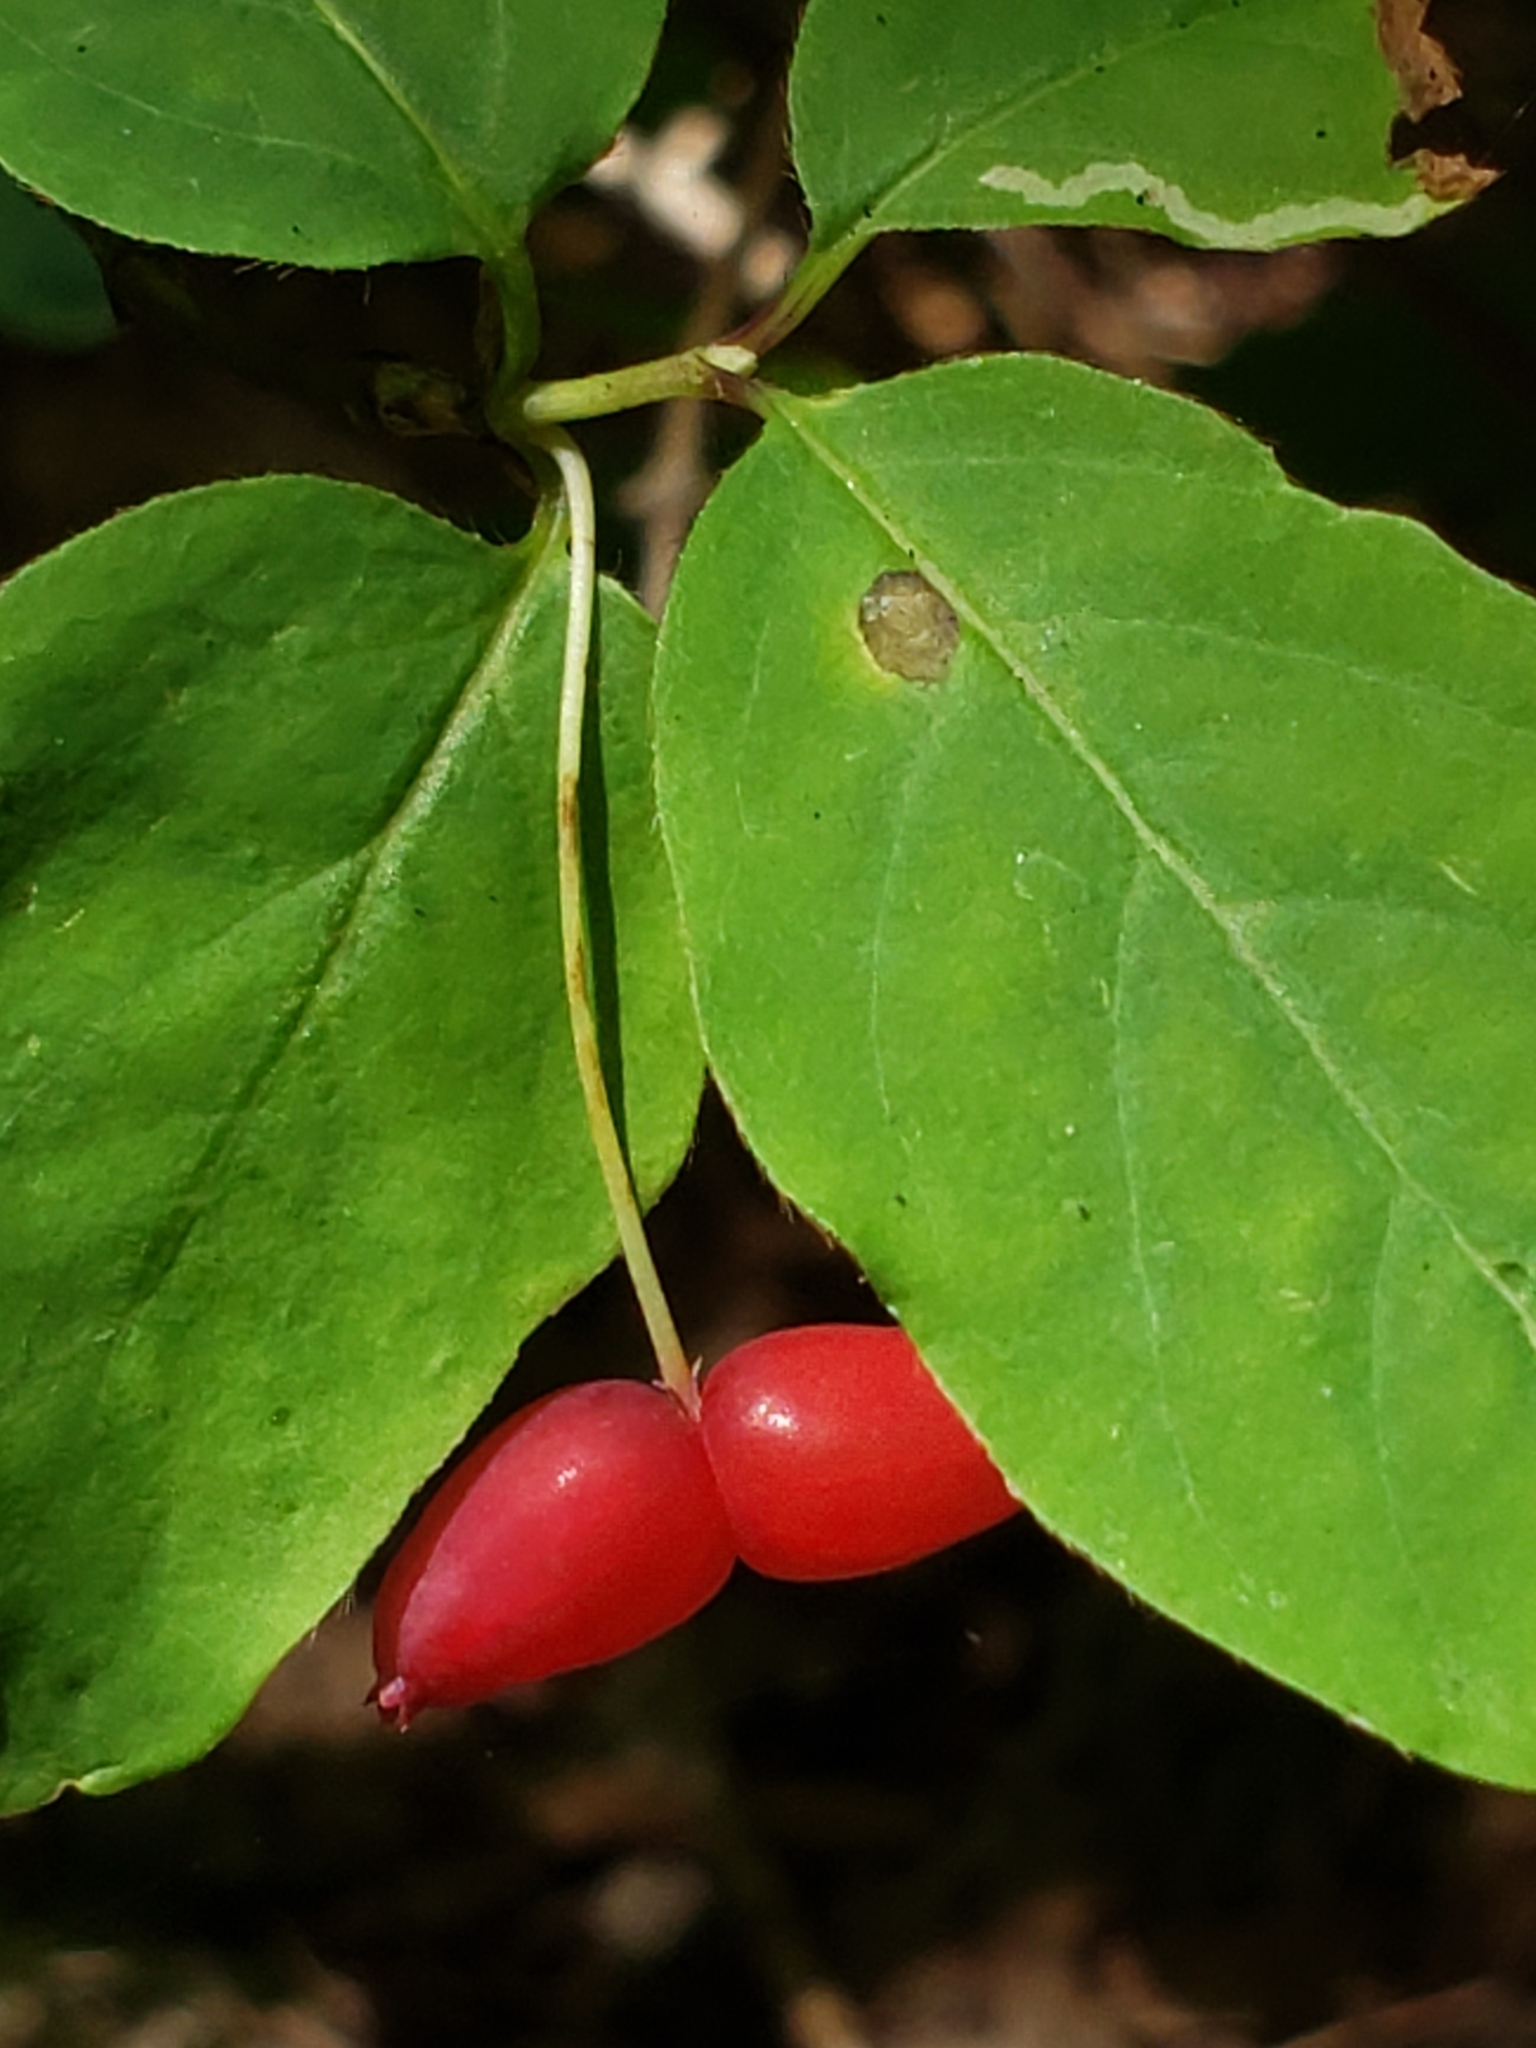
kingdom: Plantae
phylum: Tracheophyta
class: Magnoliopsida
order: Dipsacales
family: Caprifoliaceae
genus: Lonicera
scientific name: Lonicera canadensis
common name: American fly-honeysuckle
